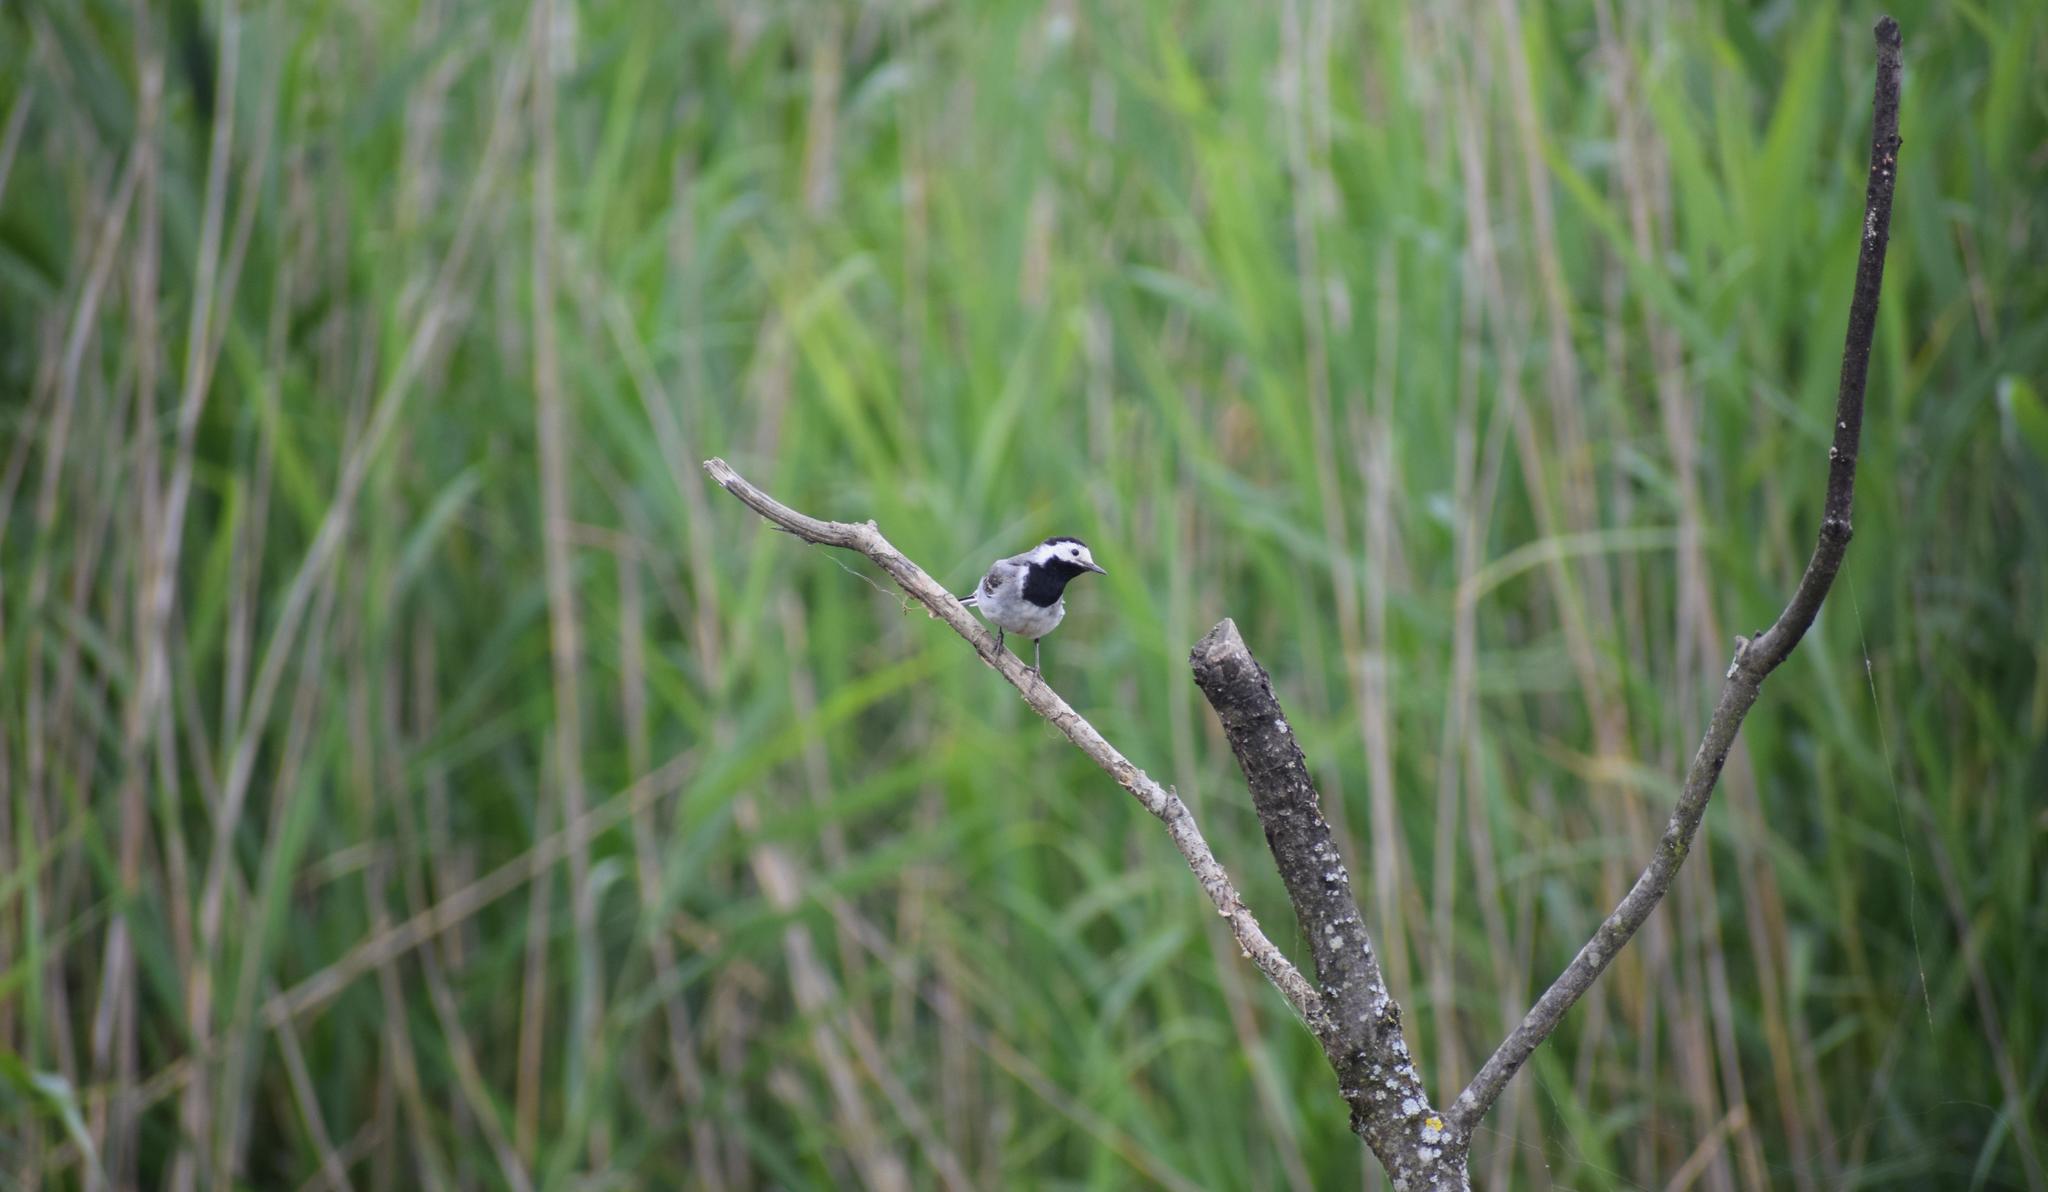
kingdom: Animalia
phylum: Chordata
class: Aves
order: Passeriformes
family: Motacillidae
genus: Motacilla
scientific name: Motacilla alba
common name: White wagtail
